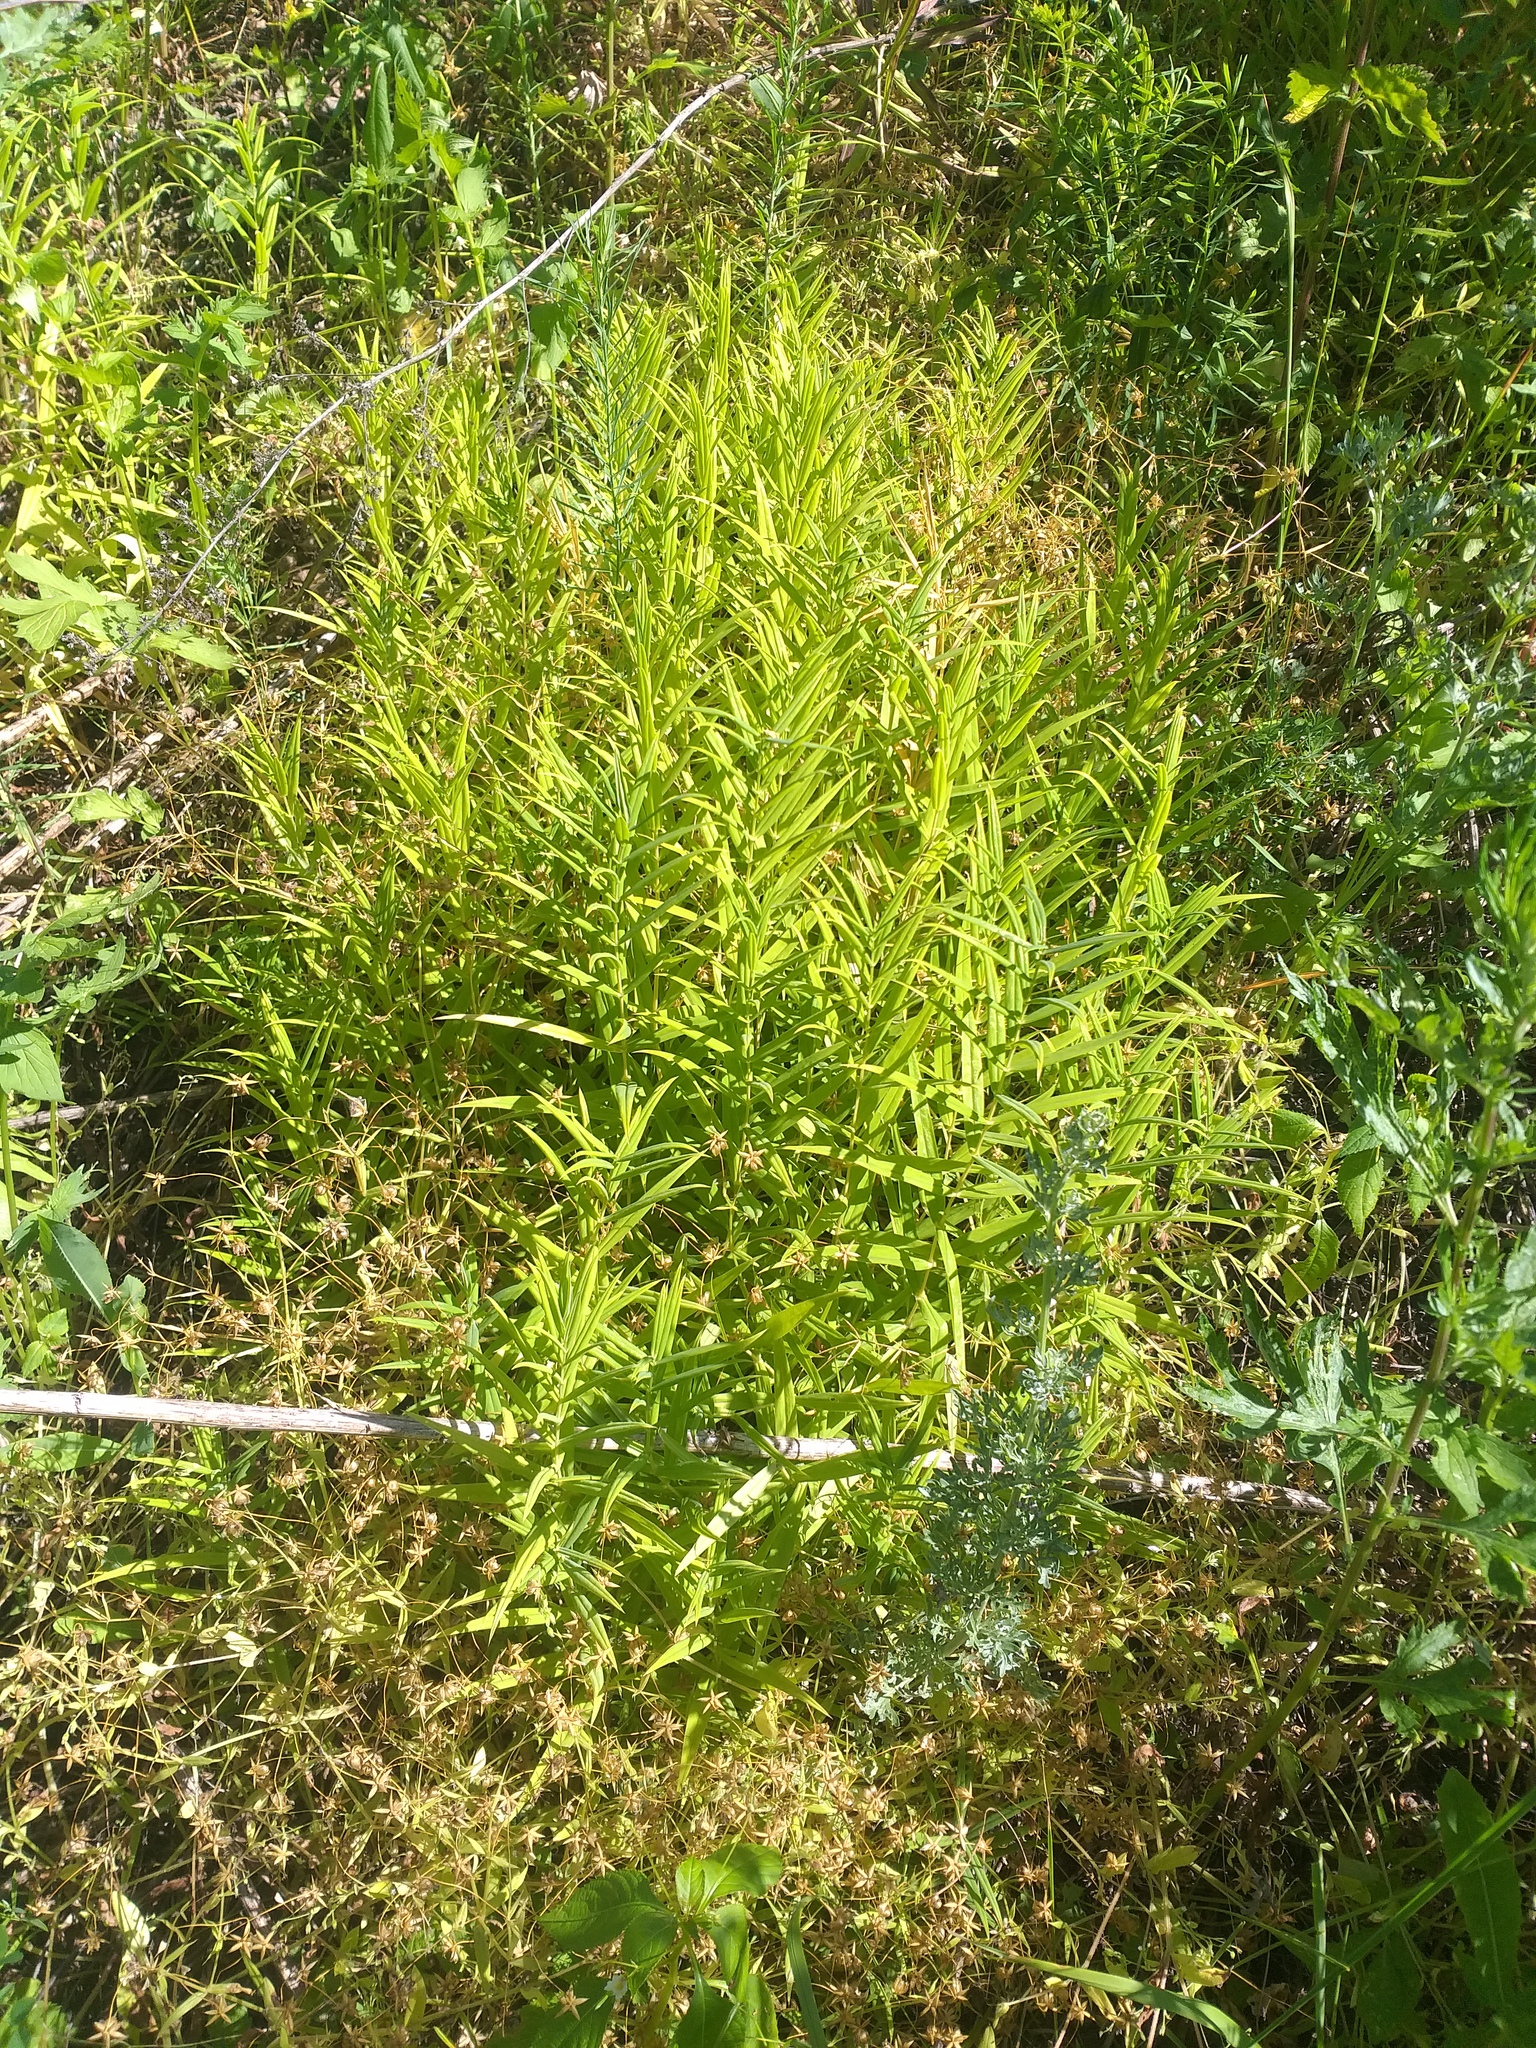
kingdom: Plantae
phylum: Tracheophyta
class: Magnoliopsida
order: Caryophyllales
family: Caryophyllaceae
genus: Rabelera
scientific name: Rabelera holostea
